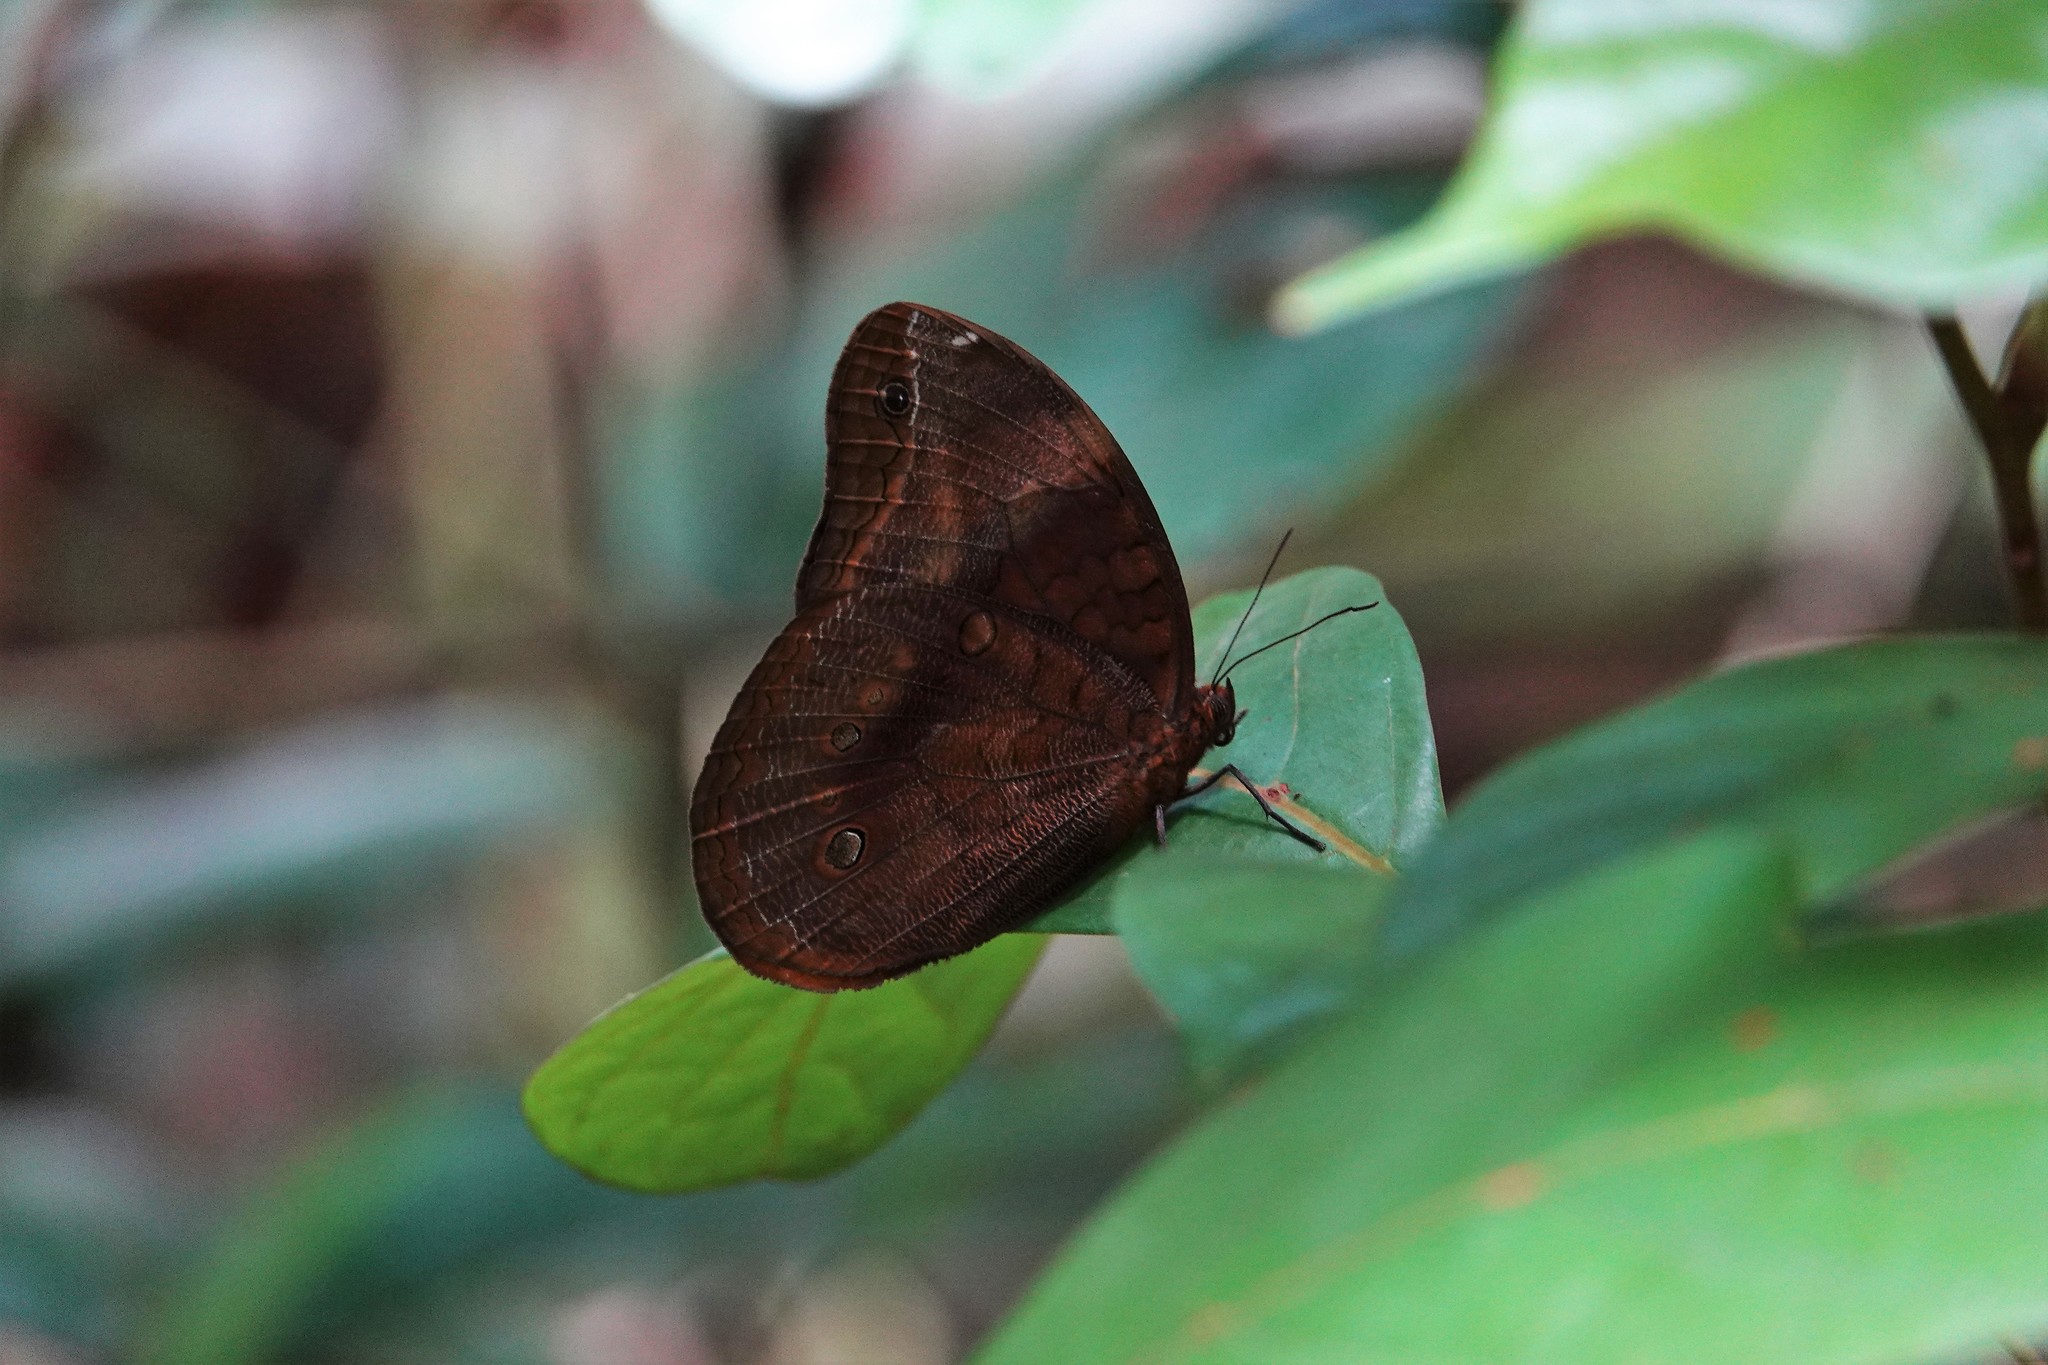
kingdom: Animalia
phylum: Arthropoda
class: Insecta
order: Lepidoptera
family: Nymphalidae
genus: Catoblepia
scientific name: Catoblepia berecynthia
